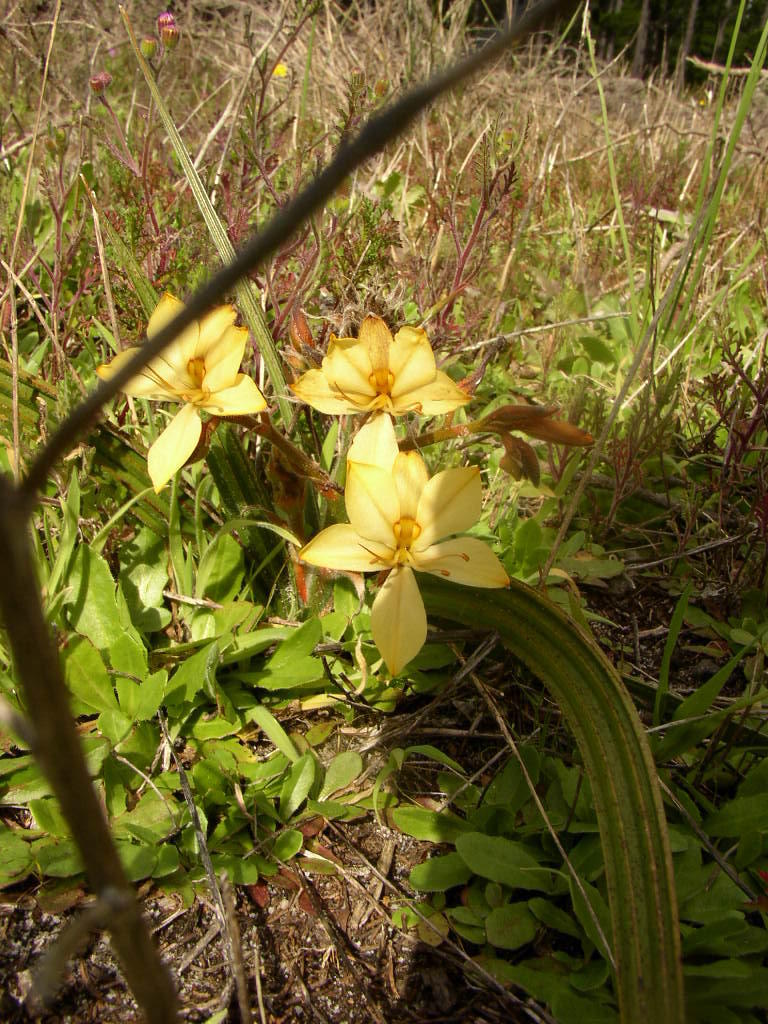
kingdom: Plantae
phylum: Tracheophyta
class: Liliopsida
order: Commelinales
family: Haemodoraceae
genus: Wachendorfia
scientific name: Wachendorfia paniculata
